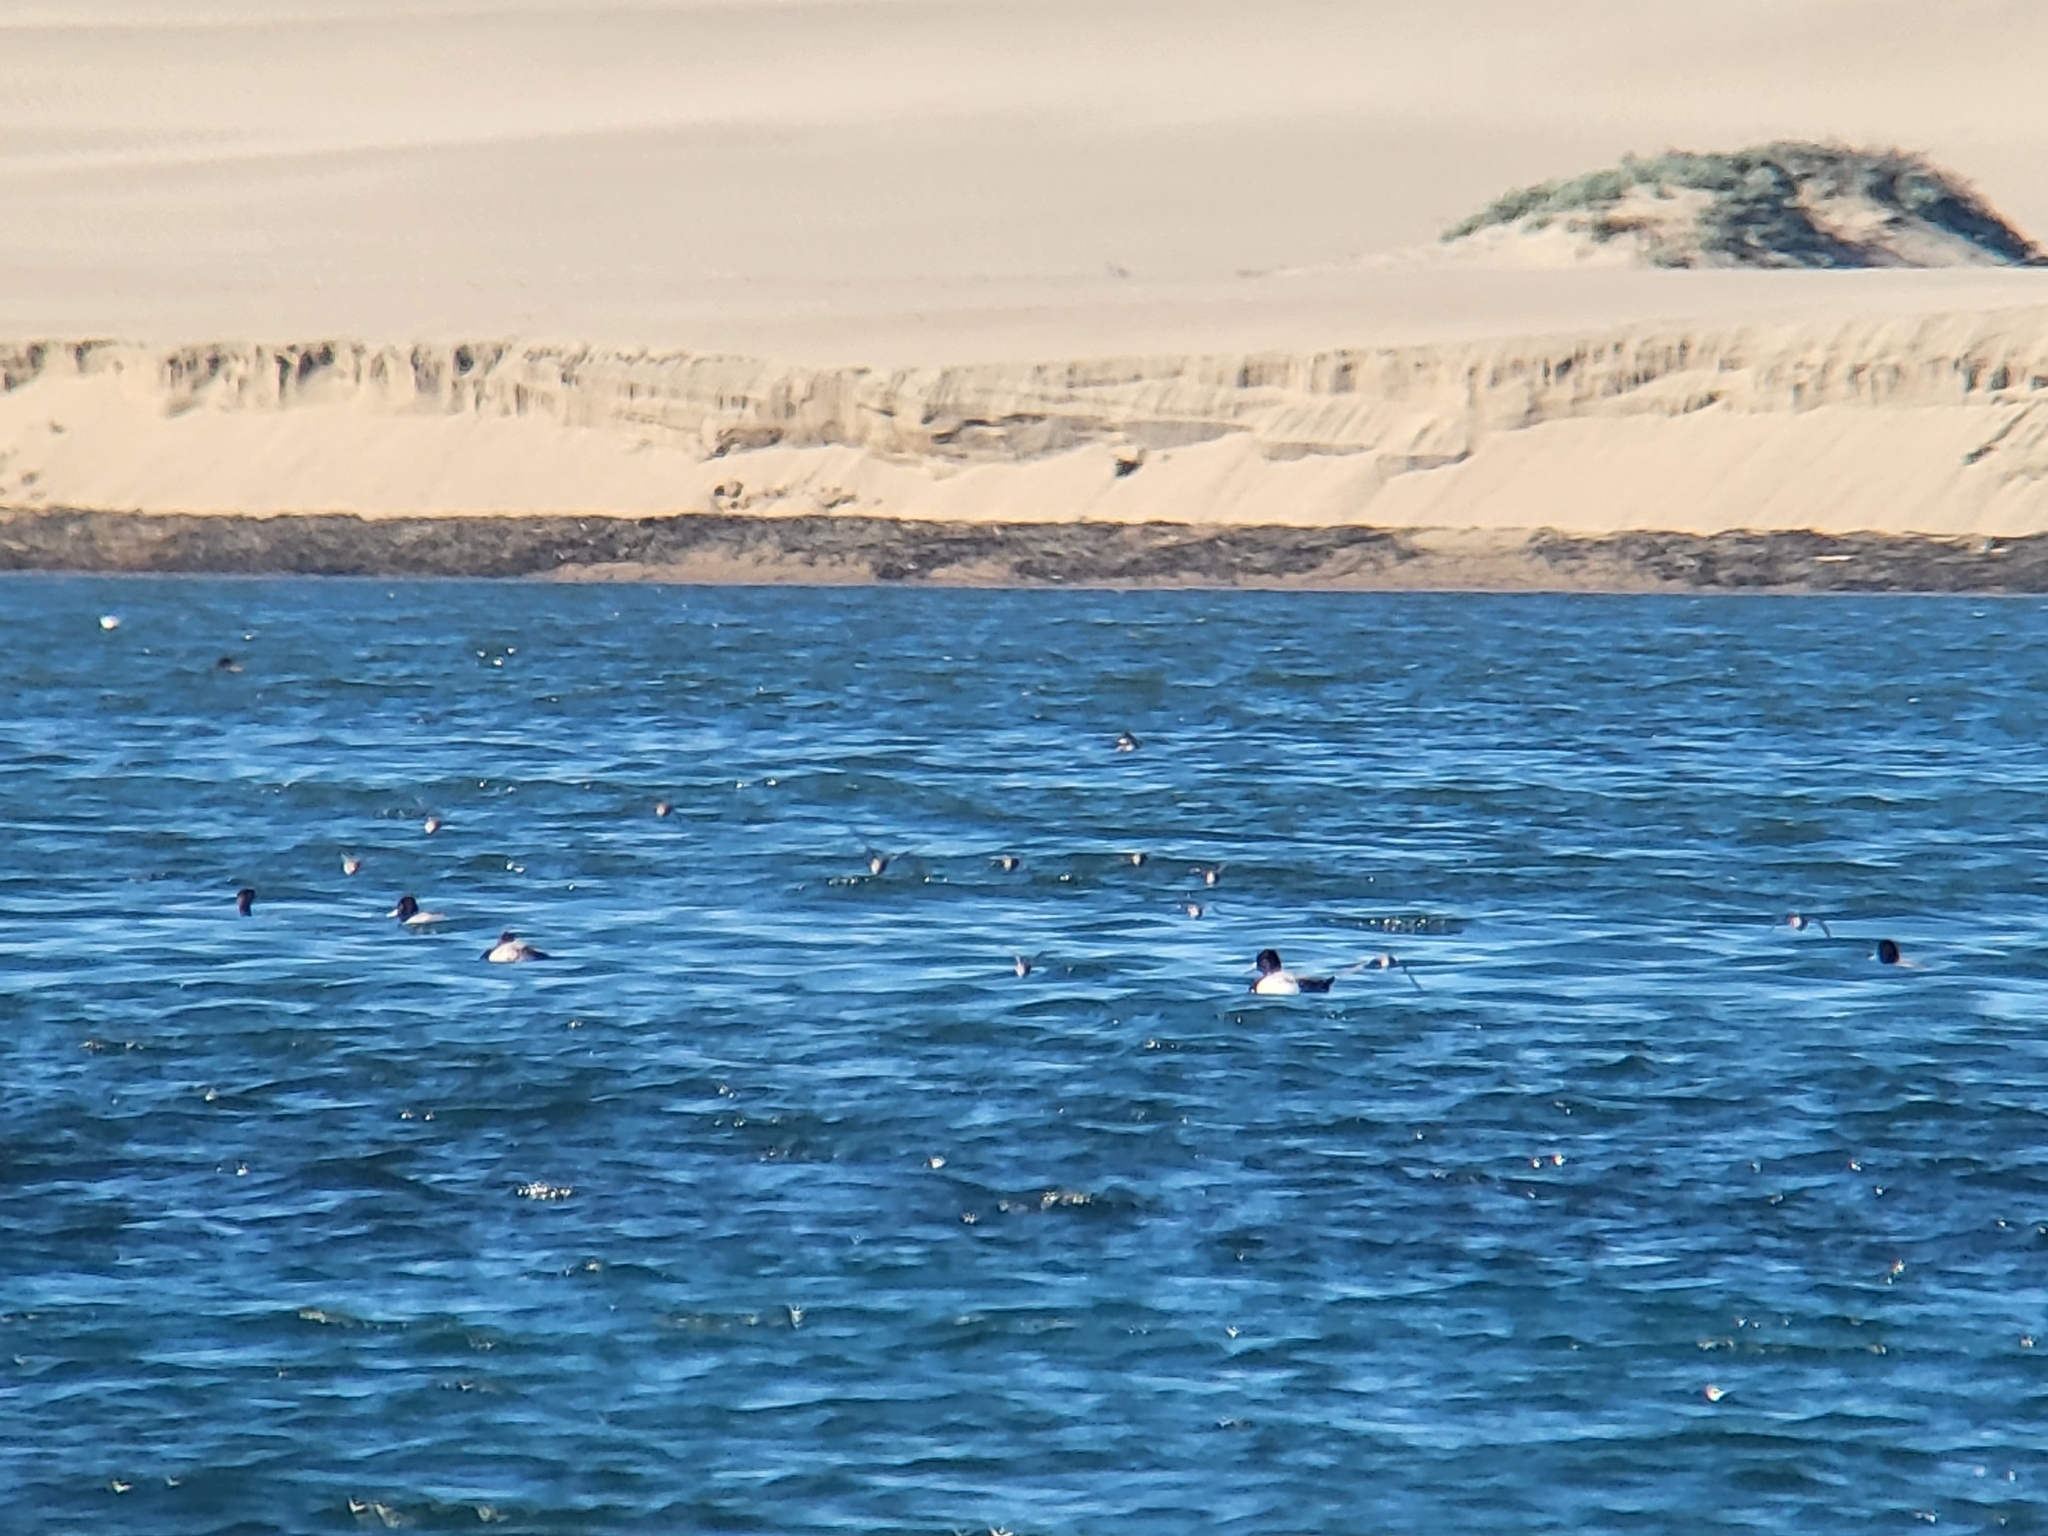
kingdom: Animalia
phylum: Chordata
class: Aves
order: Anseriformes
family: Anatidae
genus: Aythya
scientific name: Aythya
